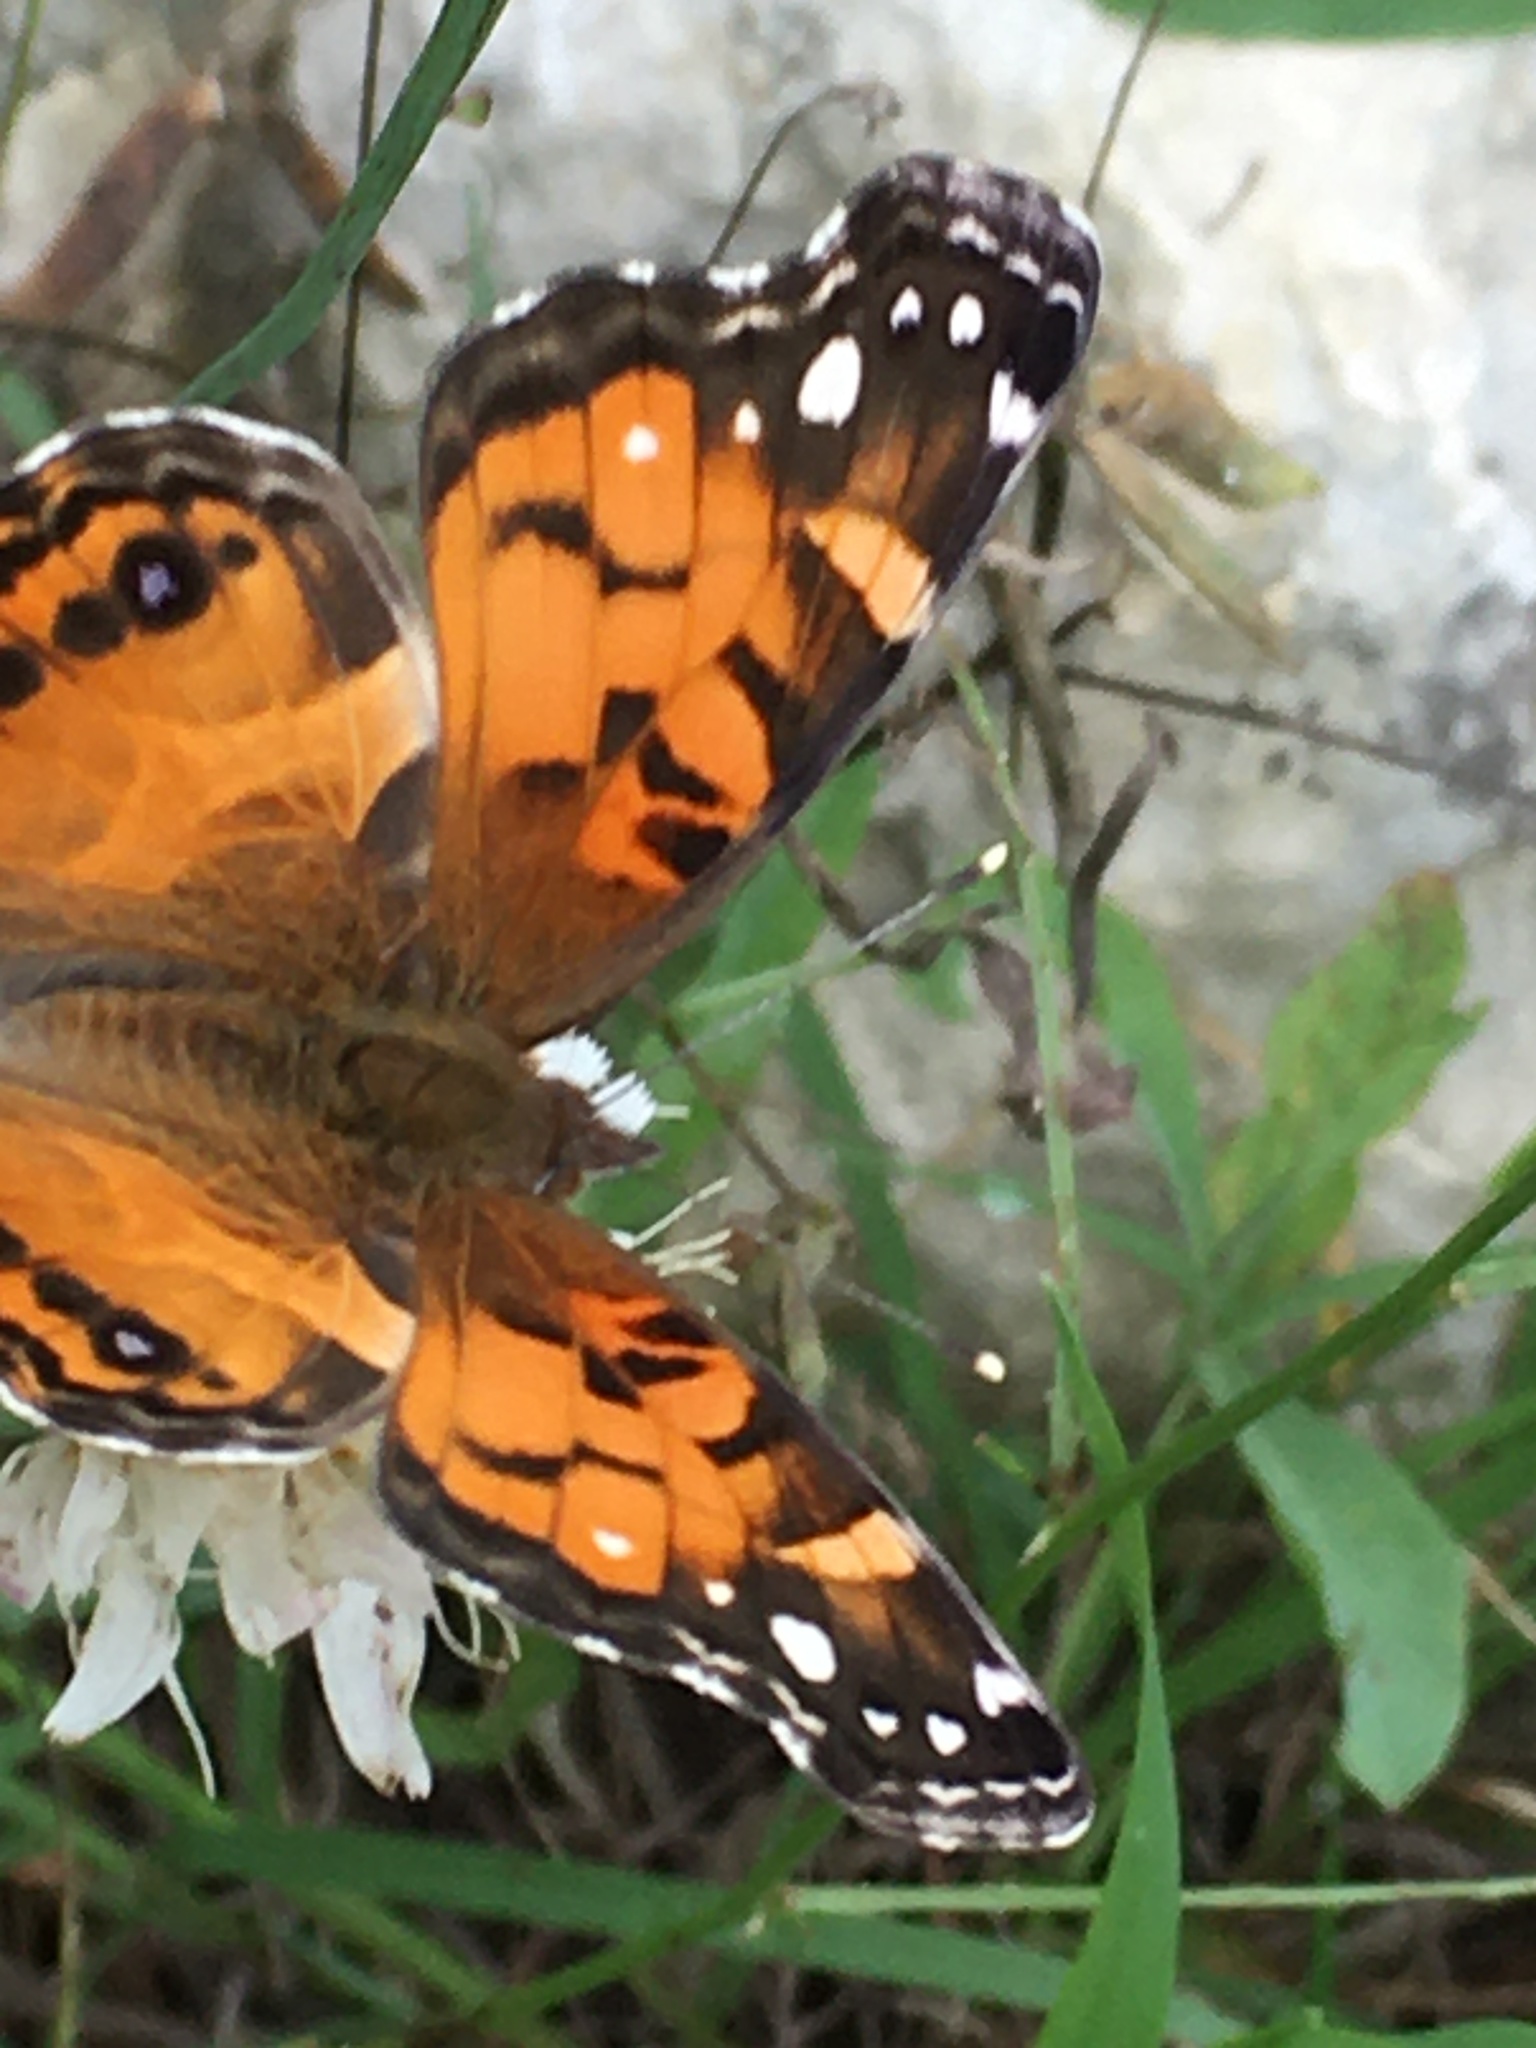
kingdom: Animalia
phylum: Arthropoda
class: Insecta
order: Lepidoptera
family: Nymphalidae
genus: Vanessa
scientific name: Vanessa virginiensis
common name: American lady
